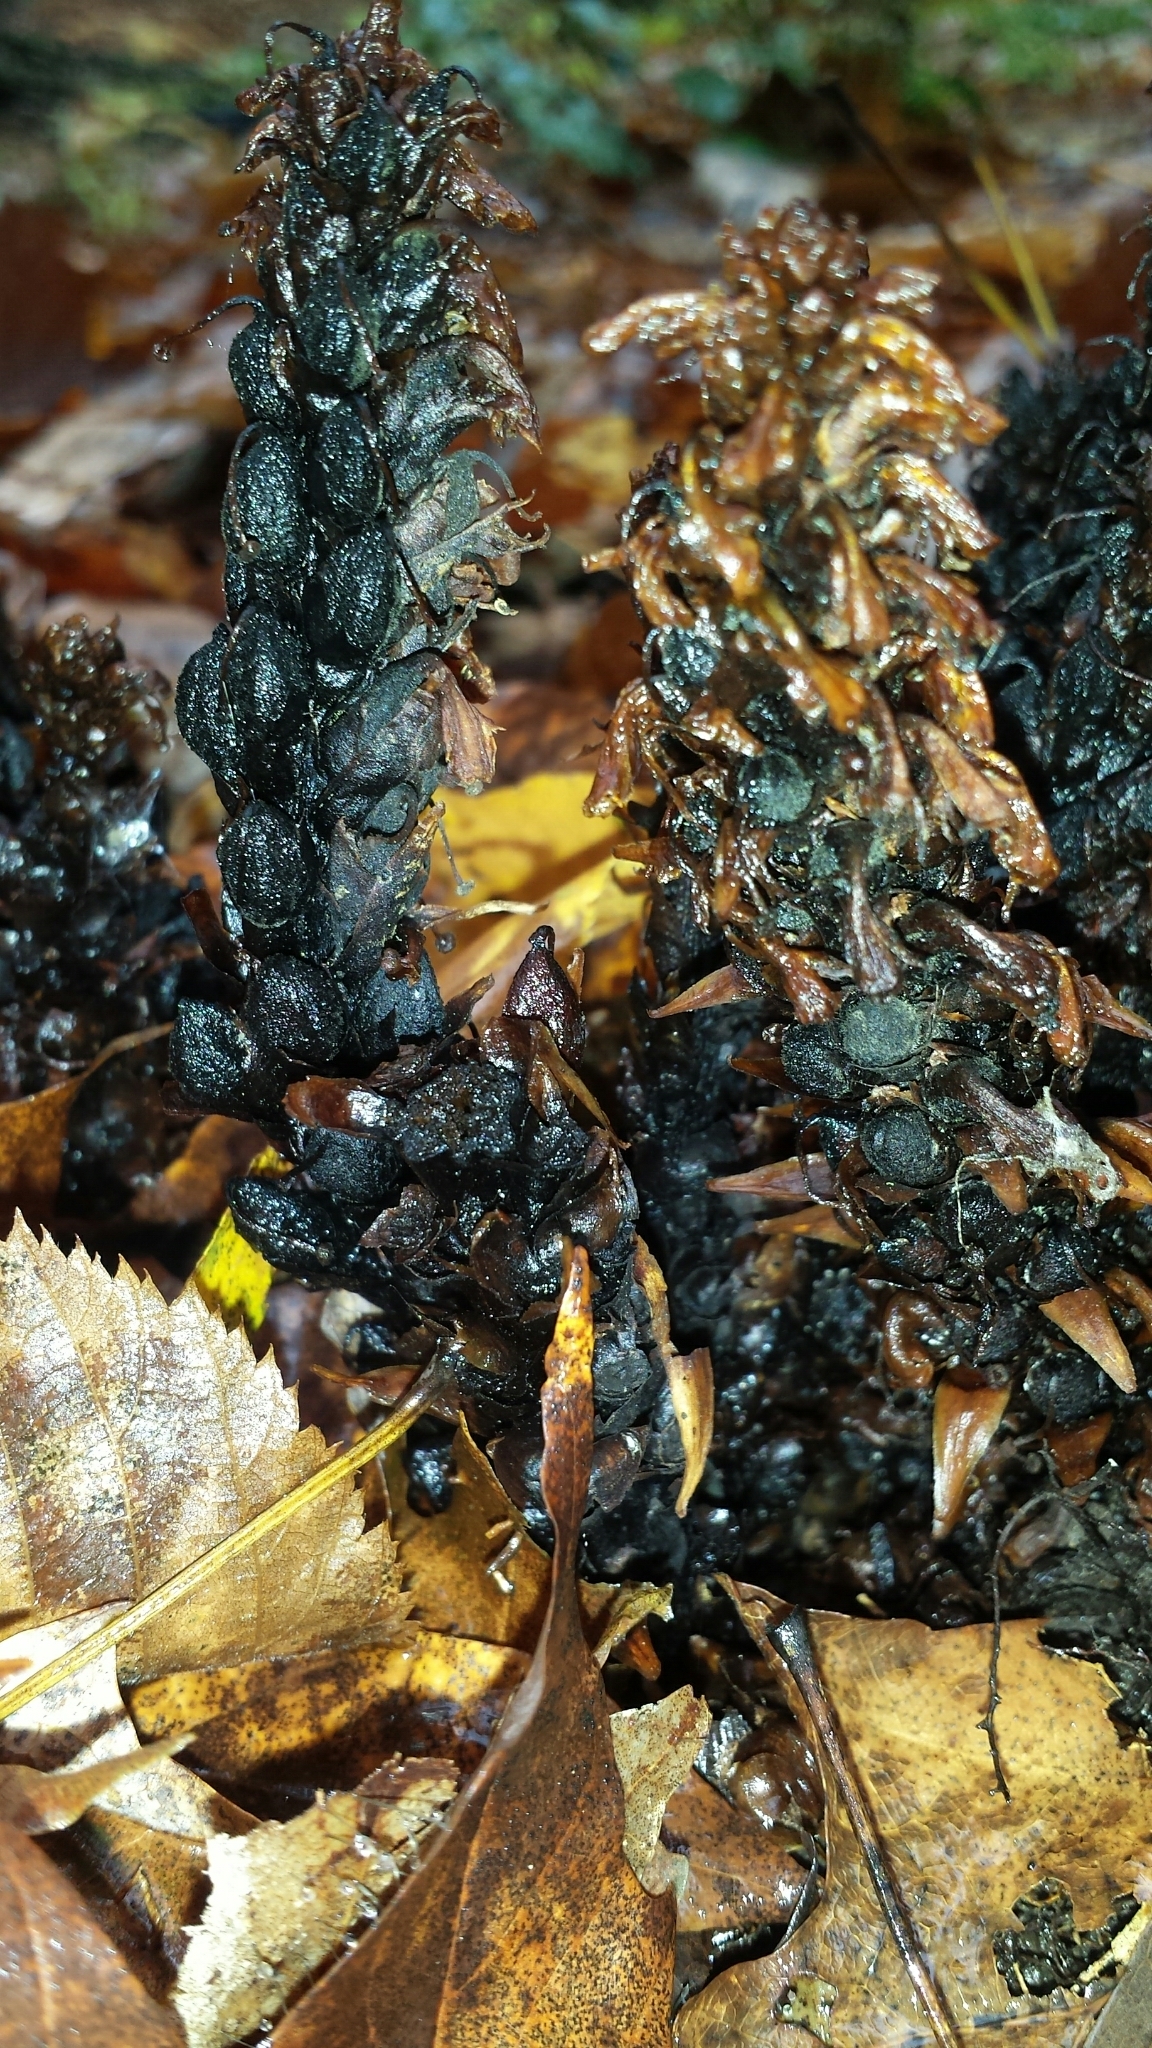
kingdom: Plantae
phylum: Tracheophyta
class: Magnoliopsida
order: Lamiales
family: Orobanchaceae
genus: Conopholis
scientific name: Conopholis americana
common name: American cancer-root
